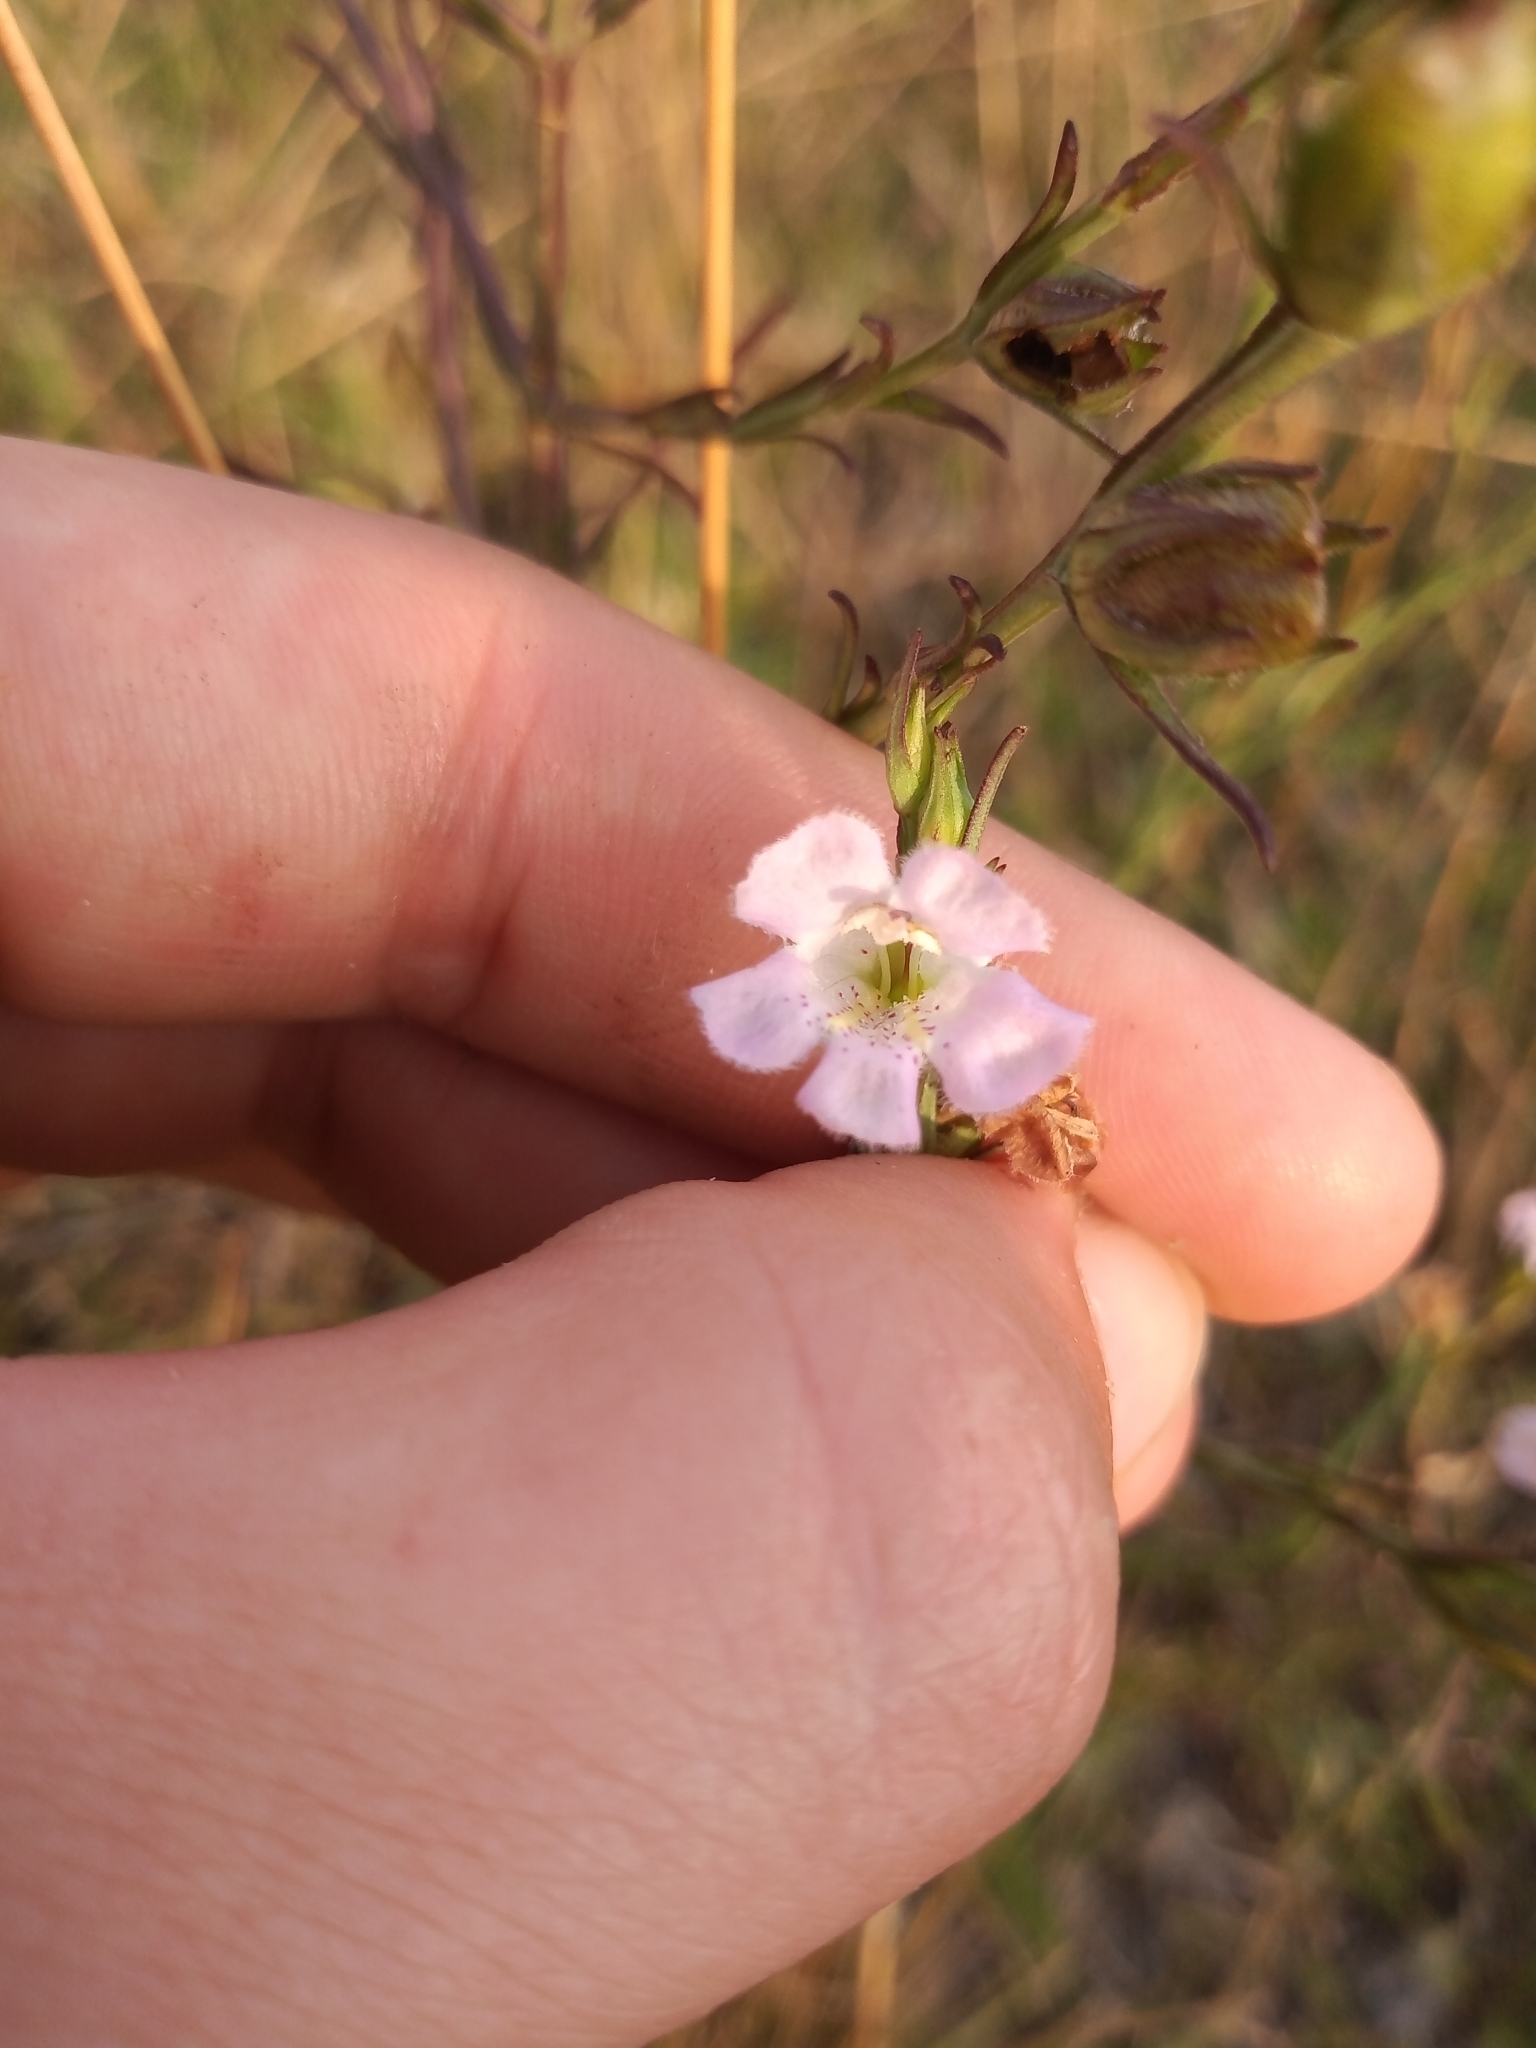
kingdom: Plantae
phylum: Tracheophyta
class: Magnoliopsida
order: Lamiales
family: Orobanchaceae
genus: Agalinis
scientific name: Agalinis communis
